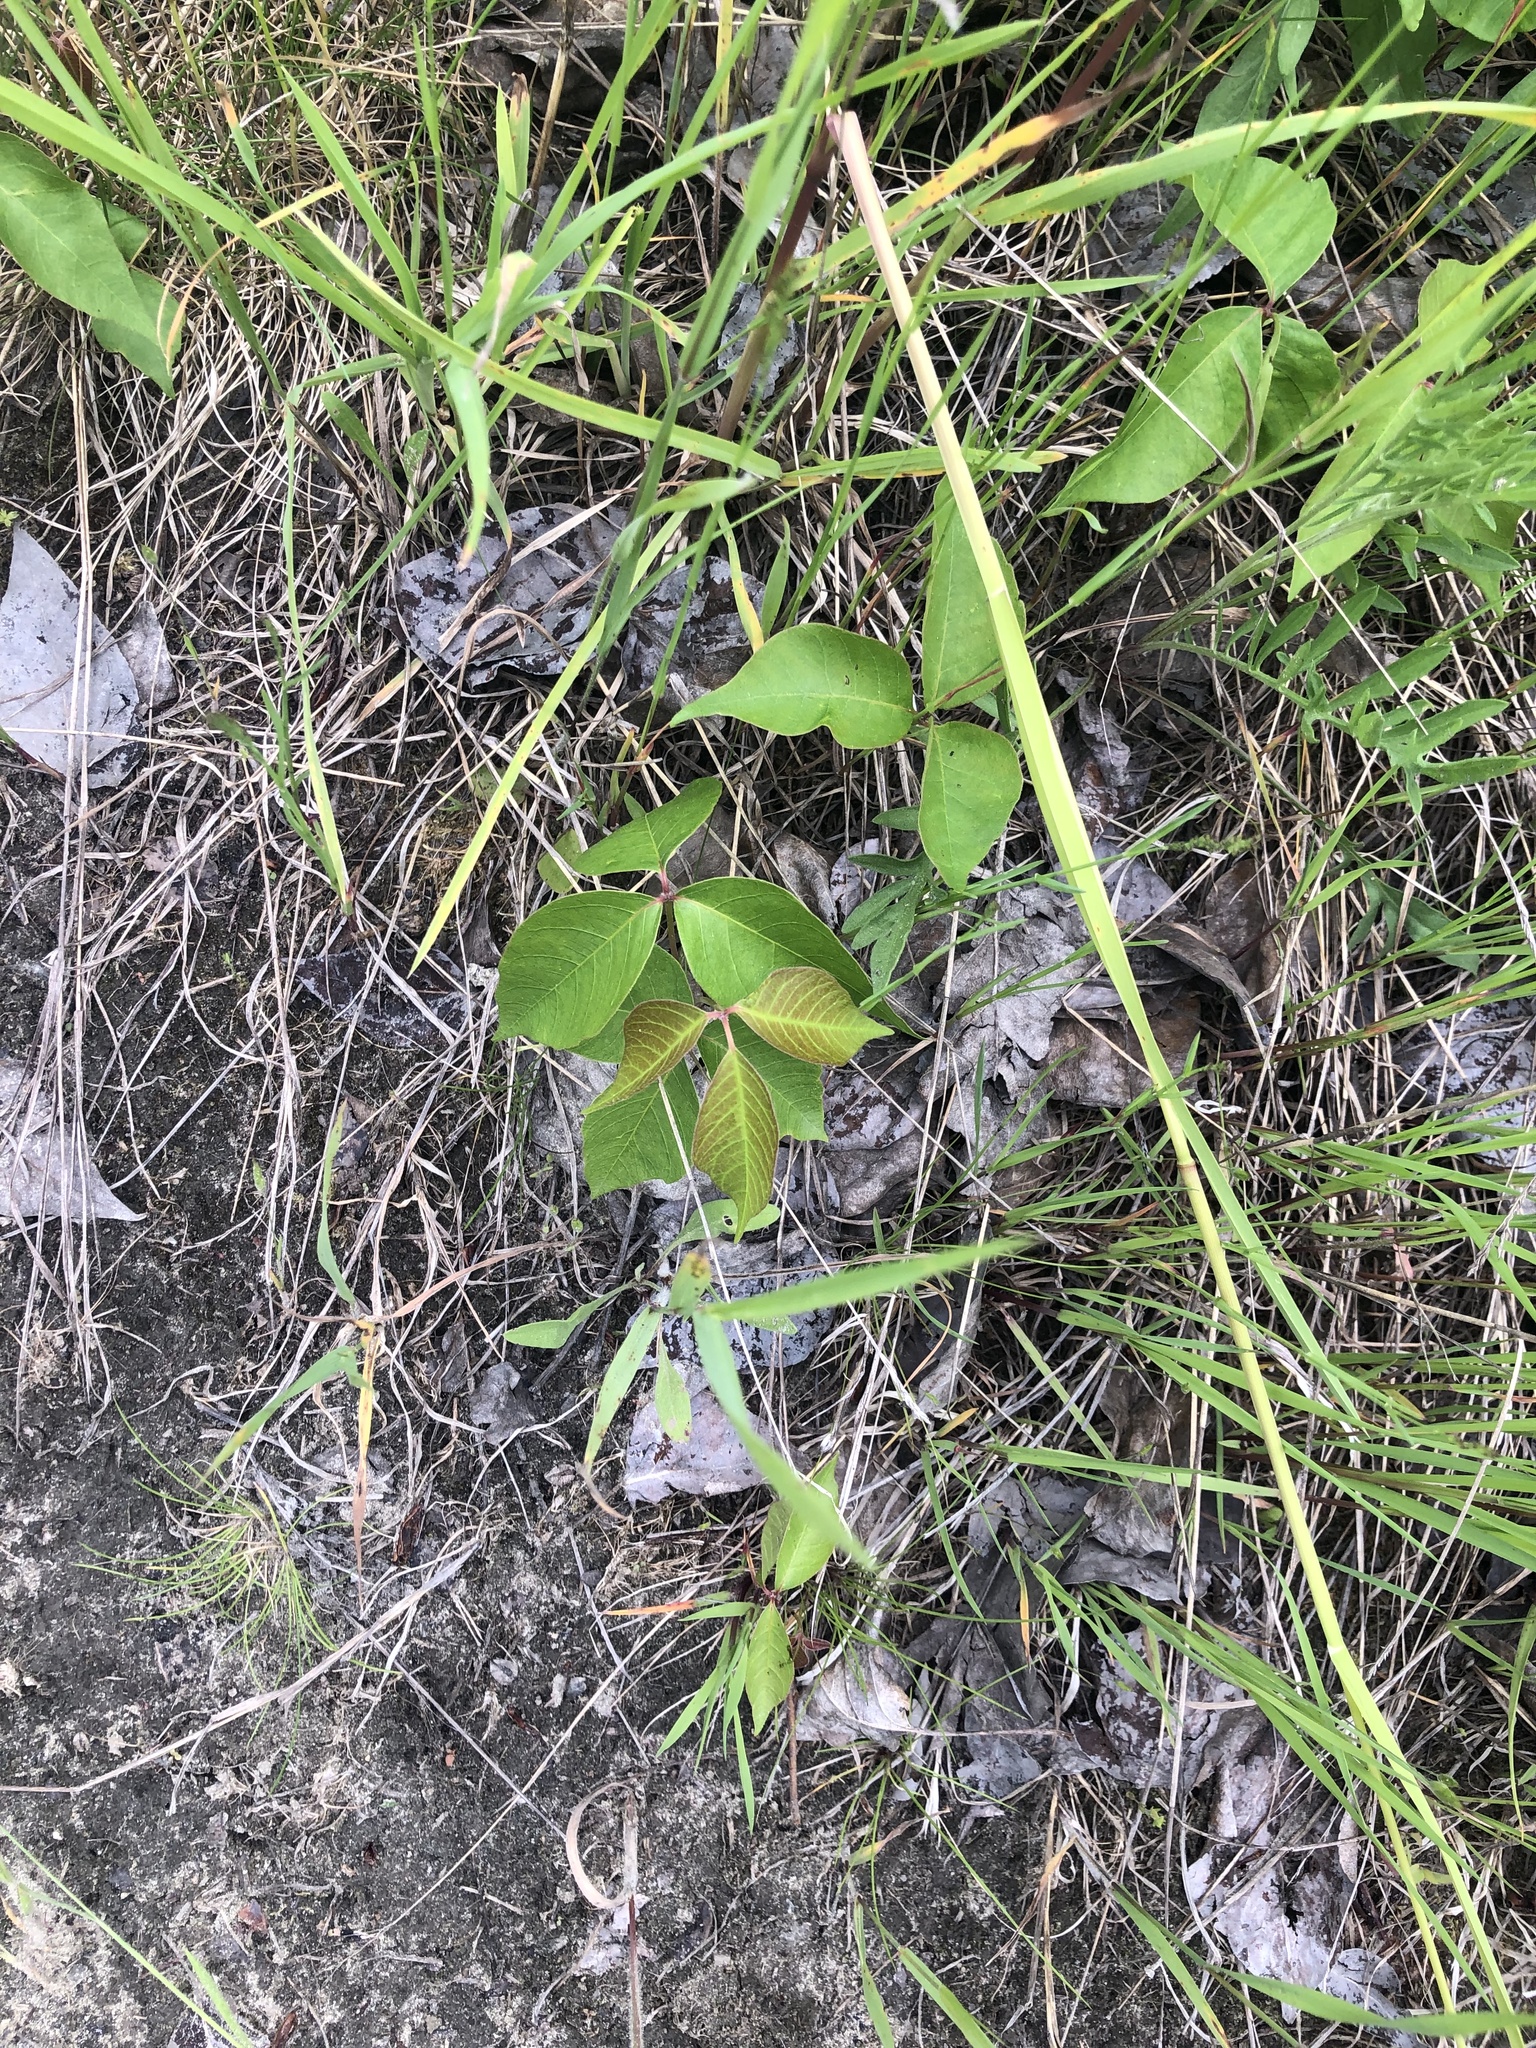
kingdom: Plantae
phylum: Tracheophyta
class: Magnoliopsida
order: Sapindales
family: Anacardiaceae
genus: Toxicodendron
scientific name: Toxicodendron rydbergii
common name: Rydberg's poison-ivy
